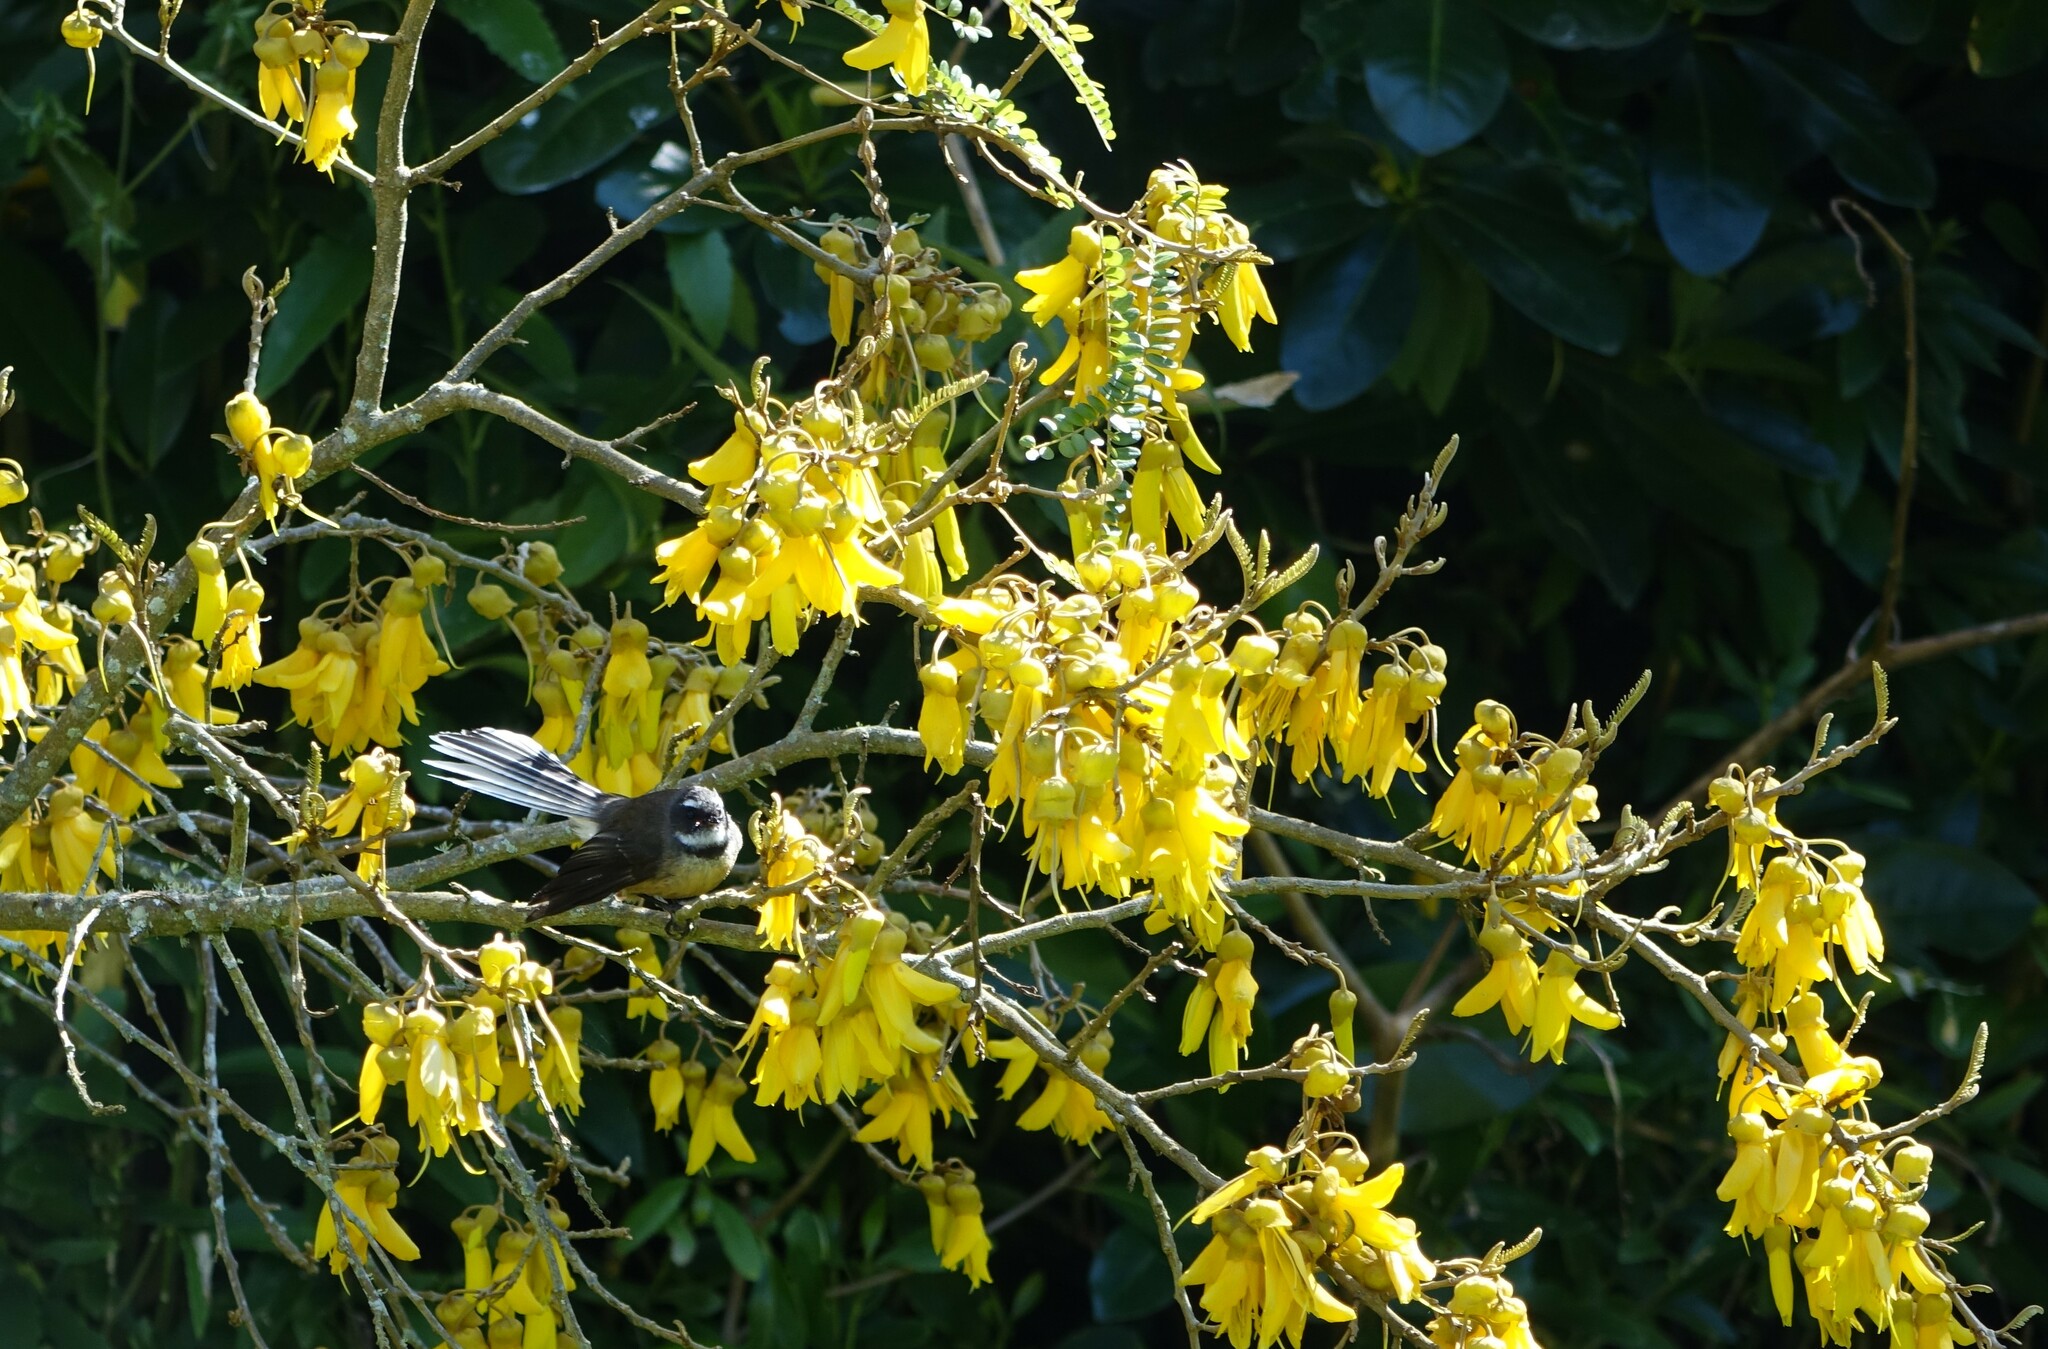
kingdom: Animalia
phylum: Chordata
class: Aves
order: Passeriformes
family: Rhipiduridae
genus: Rhipidura
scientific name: Rhipidura fuliginosa
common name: New zealand fantail
